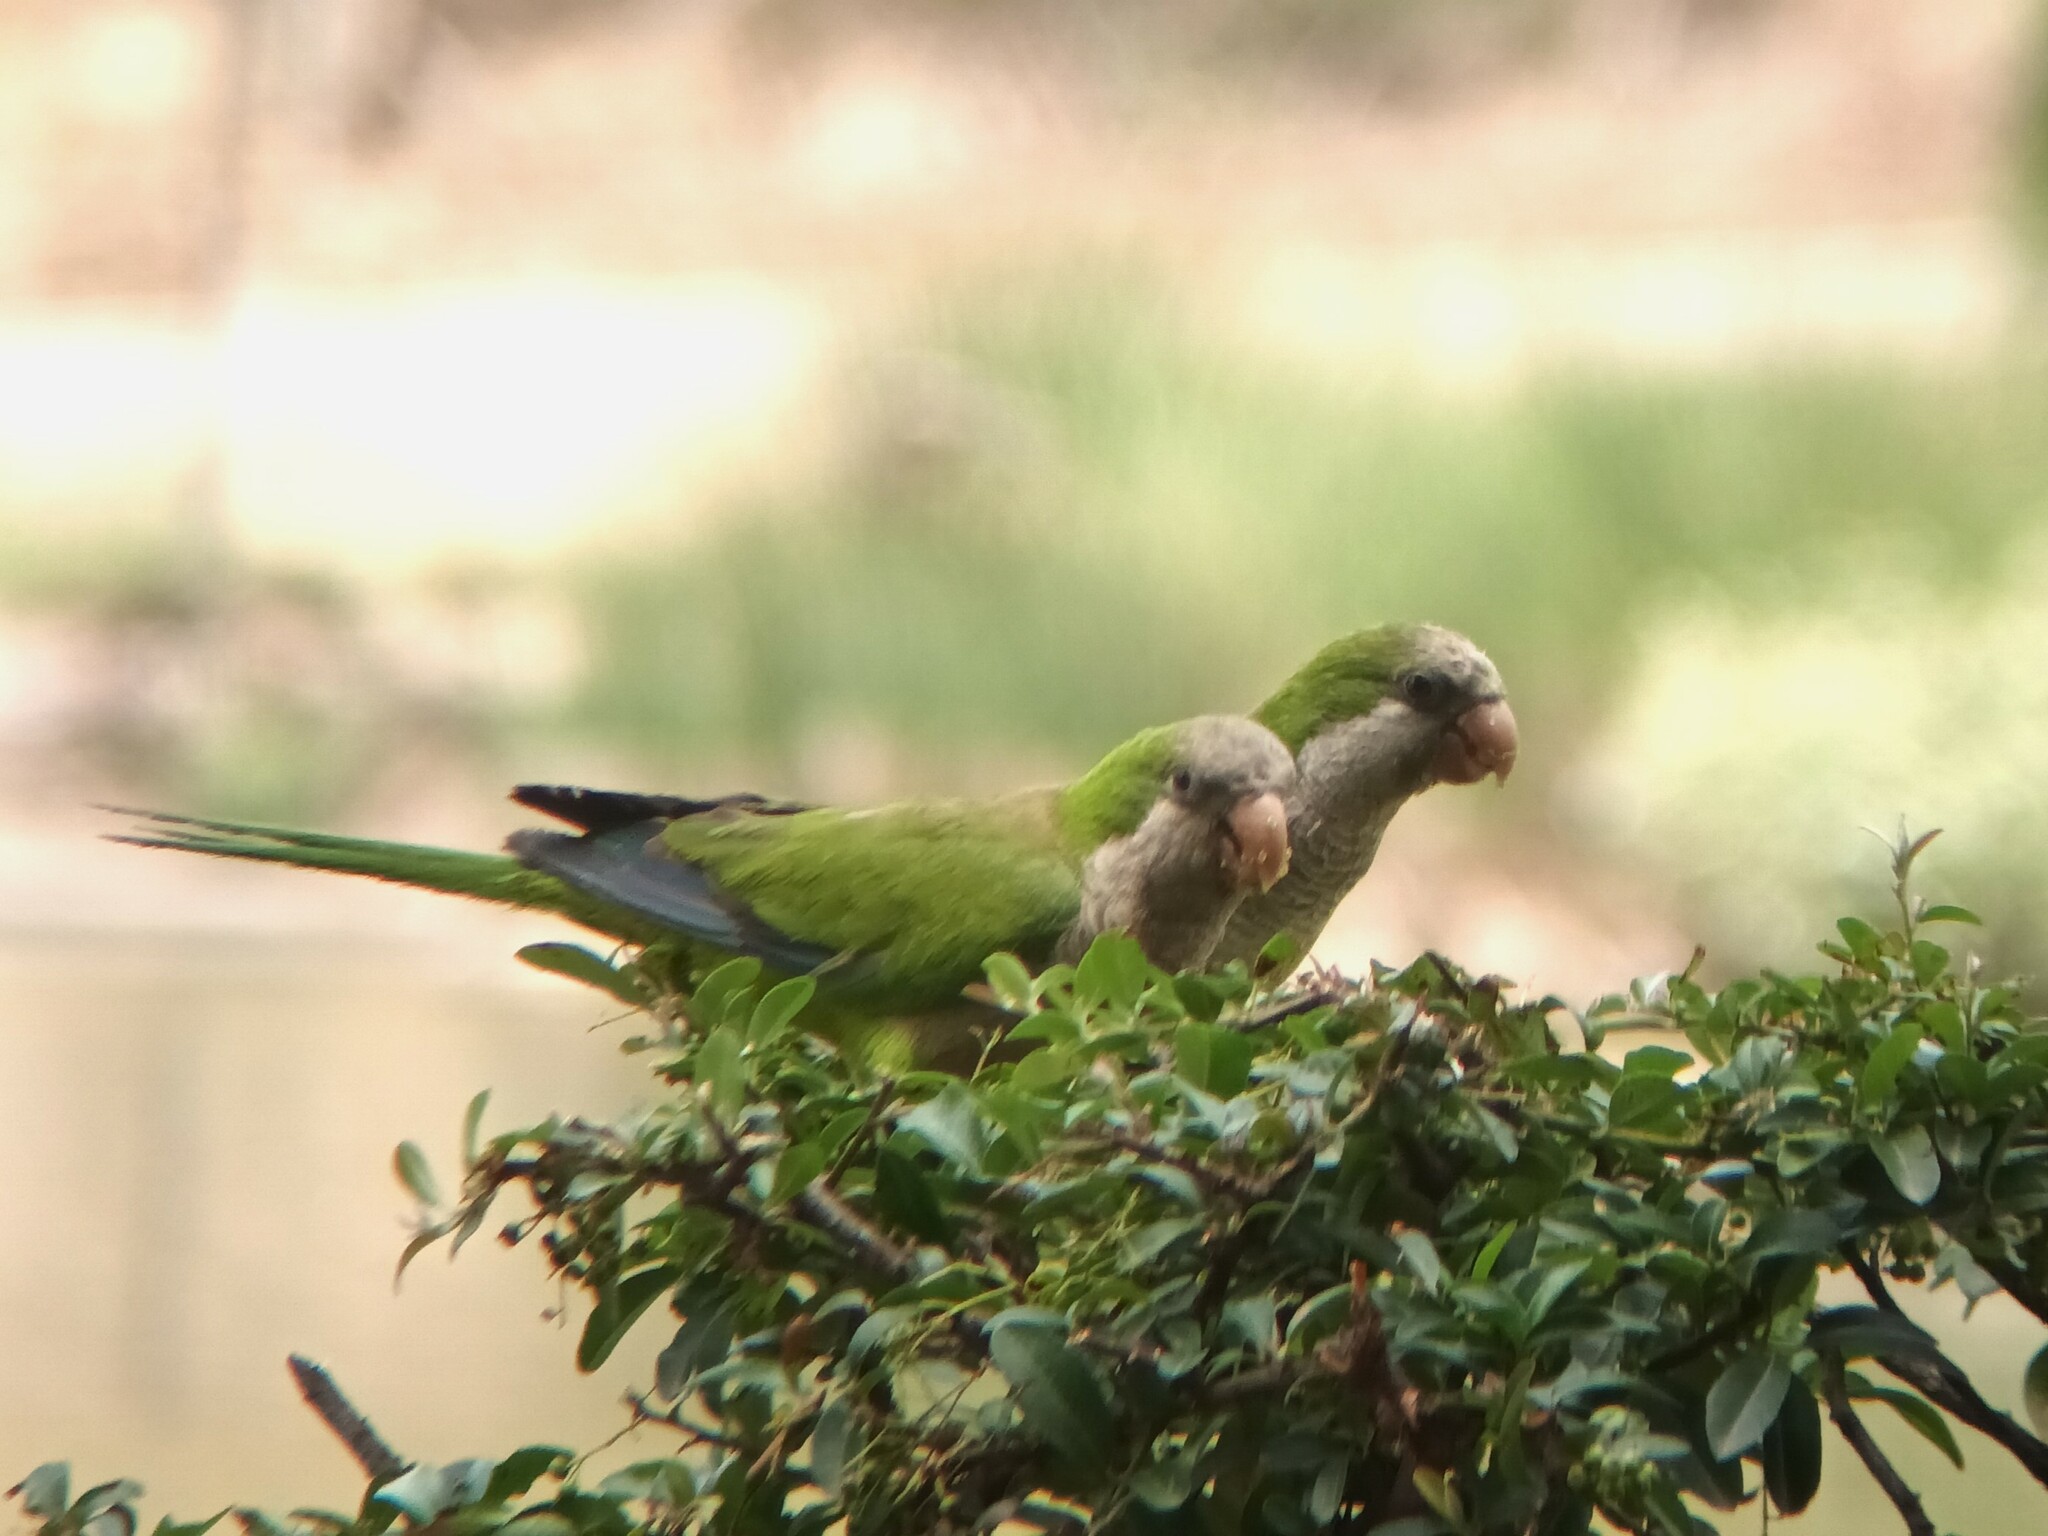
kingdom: Animalia
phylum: Chordata
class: Aves
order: Psittaciformes
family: Psittacidae
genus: Myiopsitta
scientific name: Myiopsitta monachus
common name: Monk parakeet
